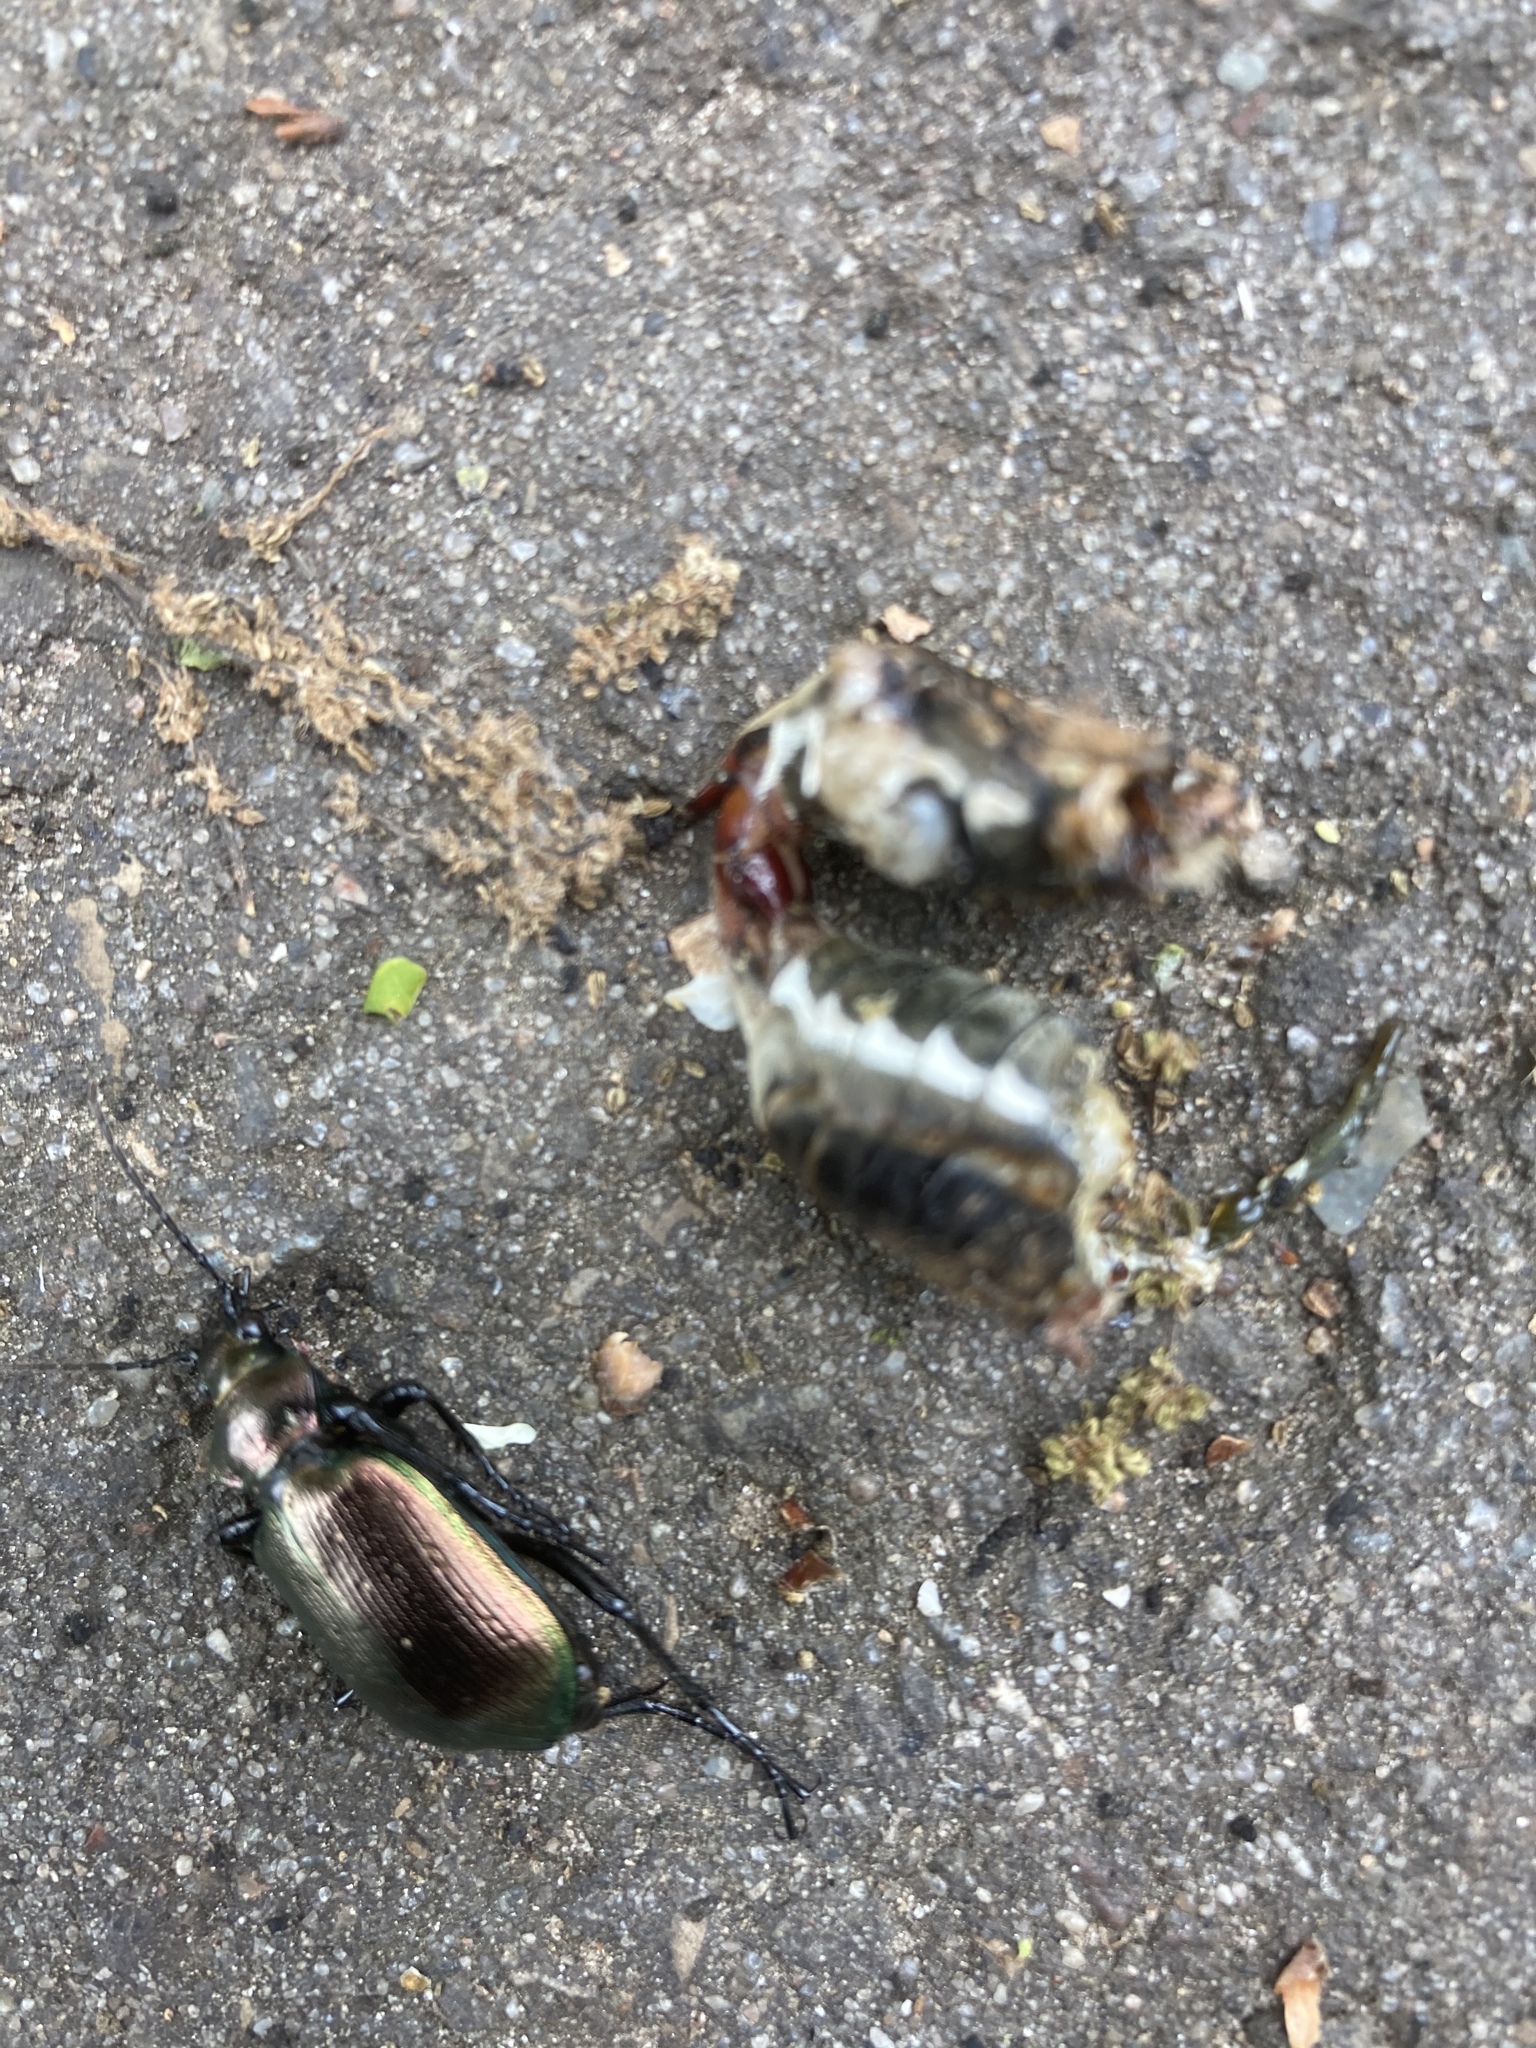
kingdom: Animalia
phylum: Arthropoda
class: Insecta
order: Coleoptera
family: Carabidae
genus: Calosoma
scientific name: Calosoma inquisitor
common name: Caterpillar-hunter
